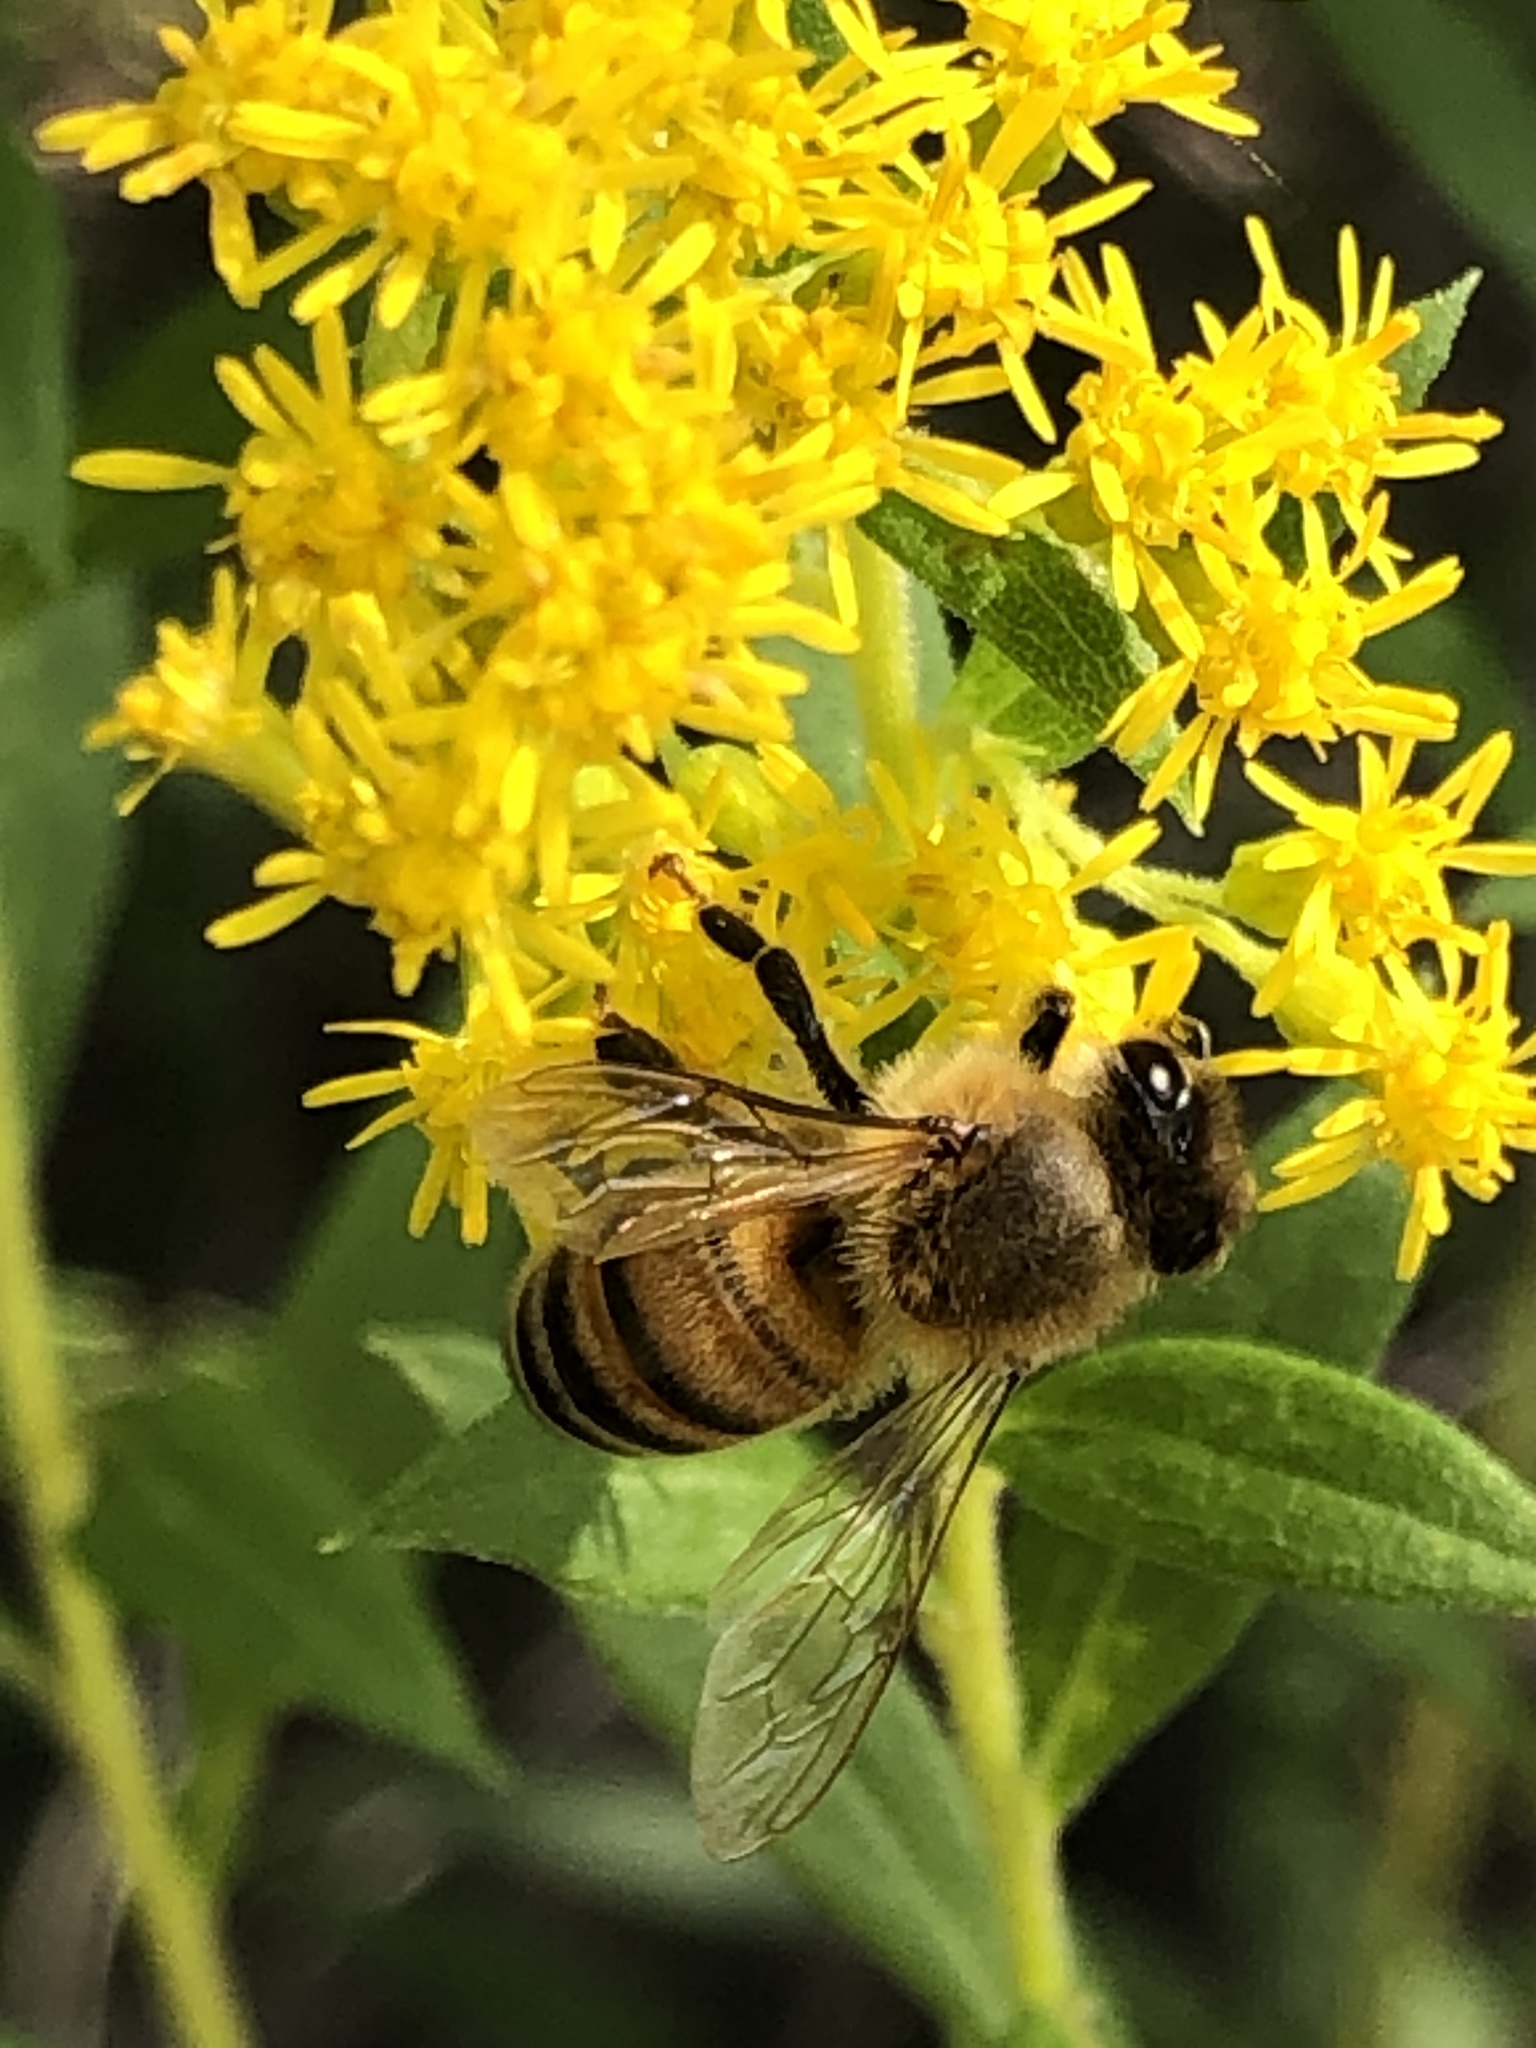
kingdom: Animalia
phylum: Arthropoda
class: Insecta
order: Hymenoptera
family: Apidae
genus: Apis
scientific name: Apis mellifera
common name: Honey bee
